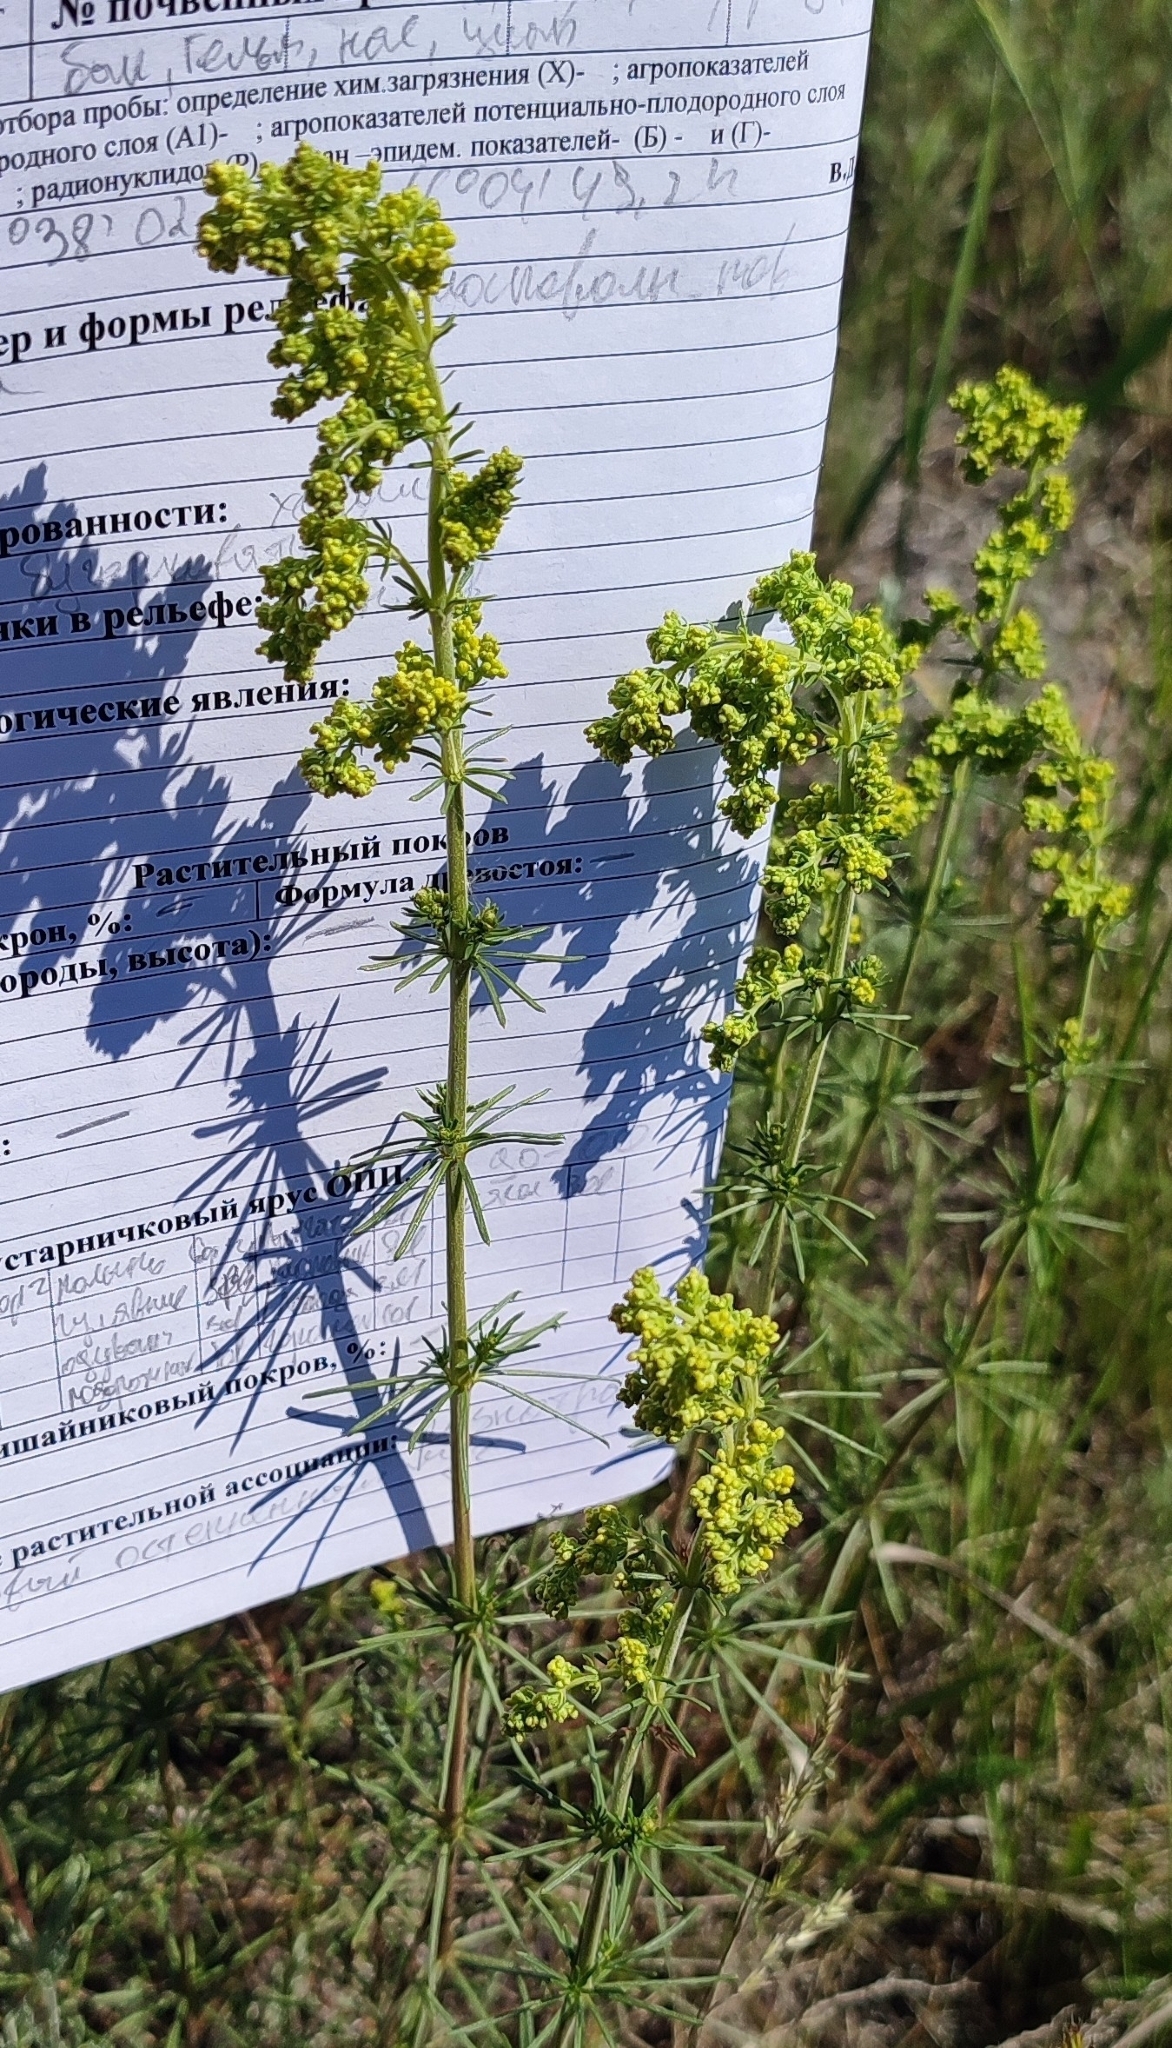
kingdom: Plantae
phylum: Tracheophyta
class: Magnoliopsida
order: Gentianales
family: Rubiaceae
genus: Galium
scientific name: Galium verum
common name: Lady's bedstraw
